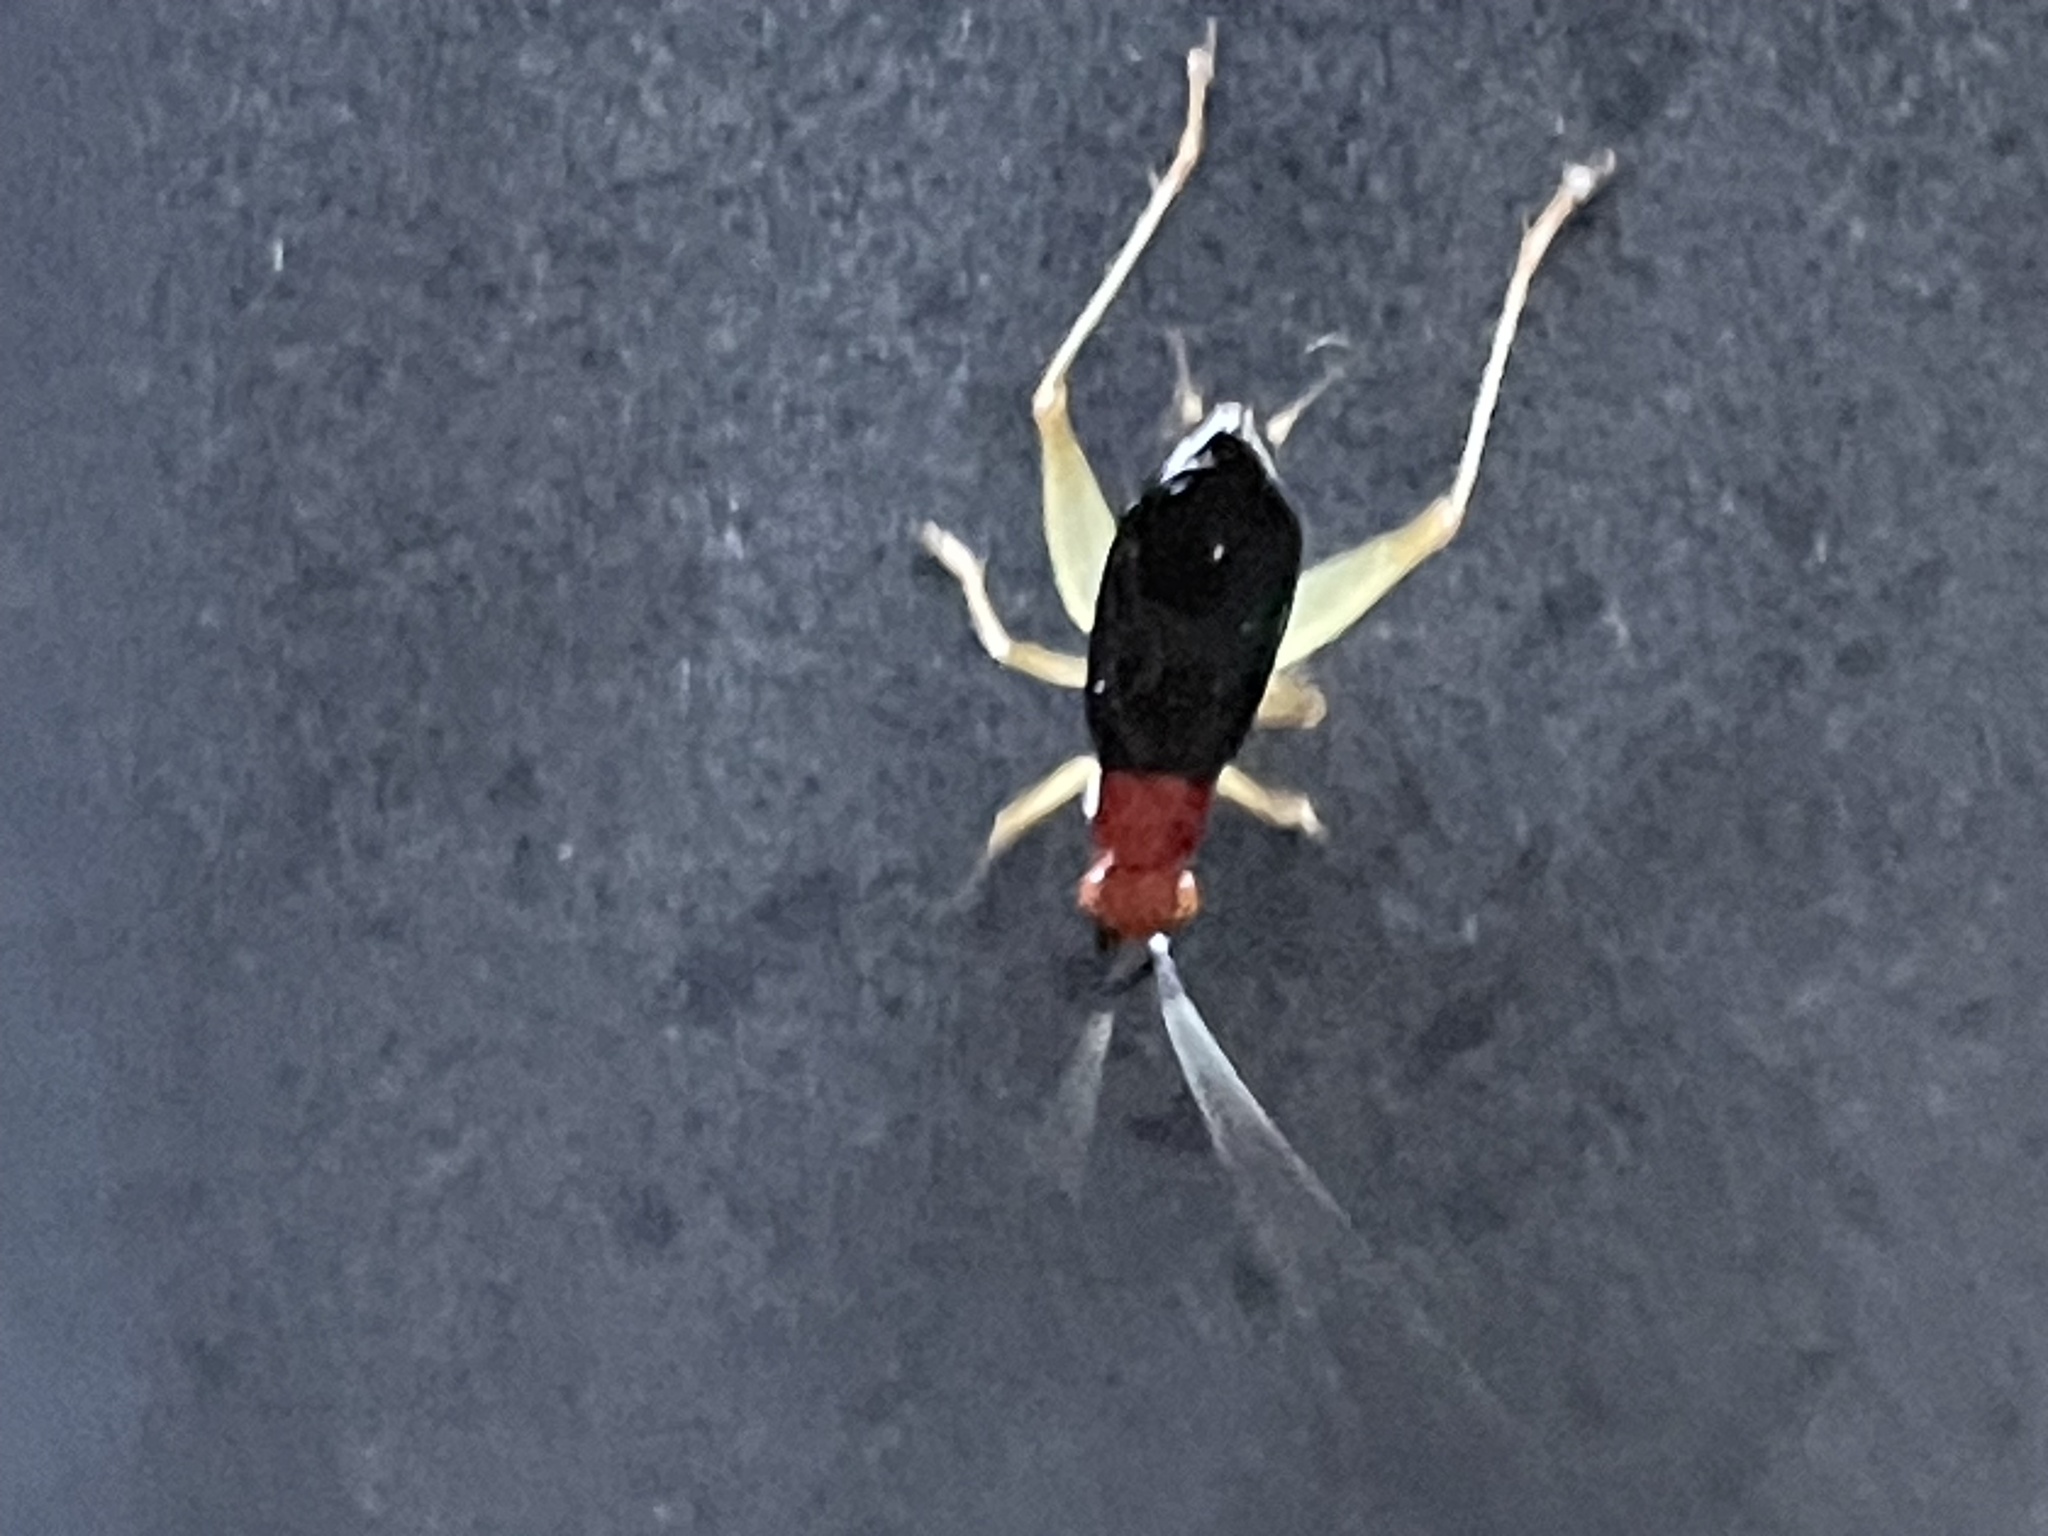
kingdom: Animalia
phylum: Arthropoda
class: Insecta
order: Orthoptera
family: Trigonidiidae
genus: Phyllopalpus
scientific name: Phyllopalpus pulchellus
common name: Handsome trig
